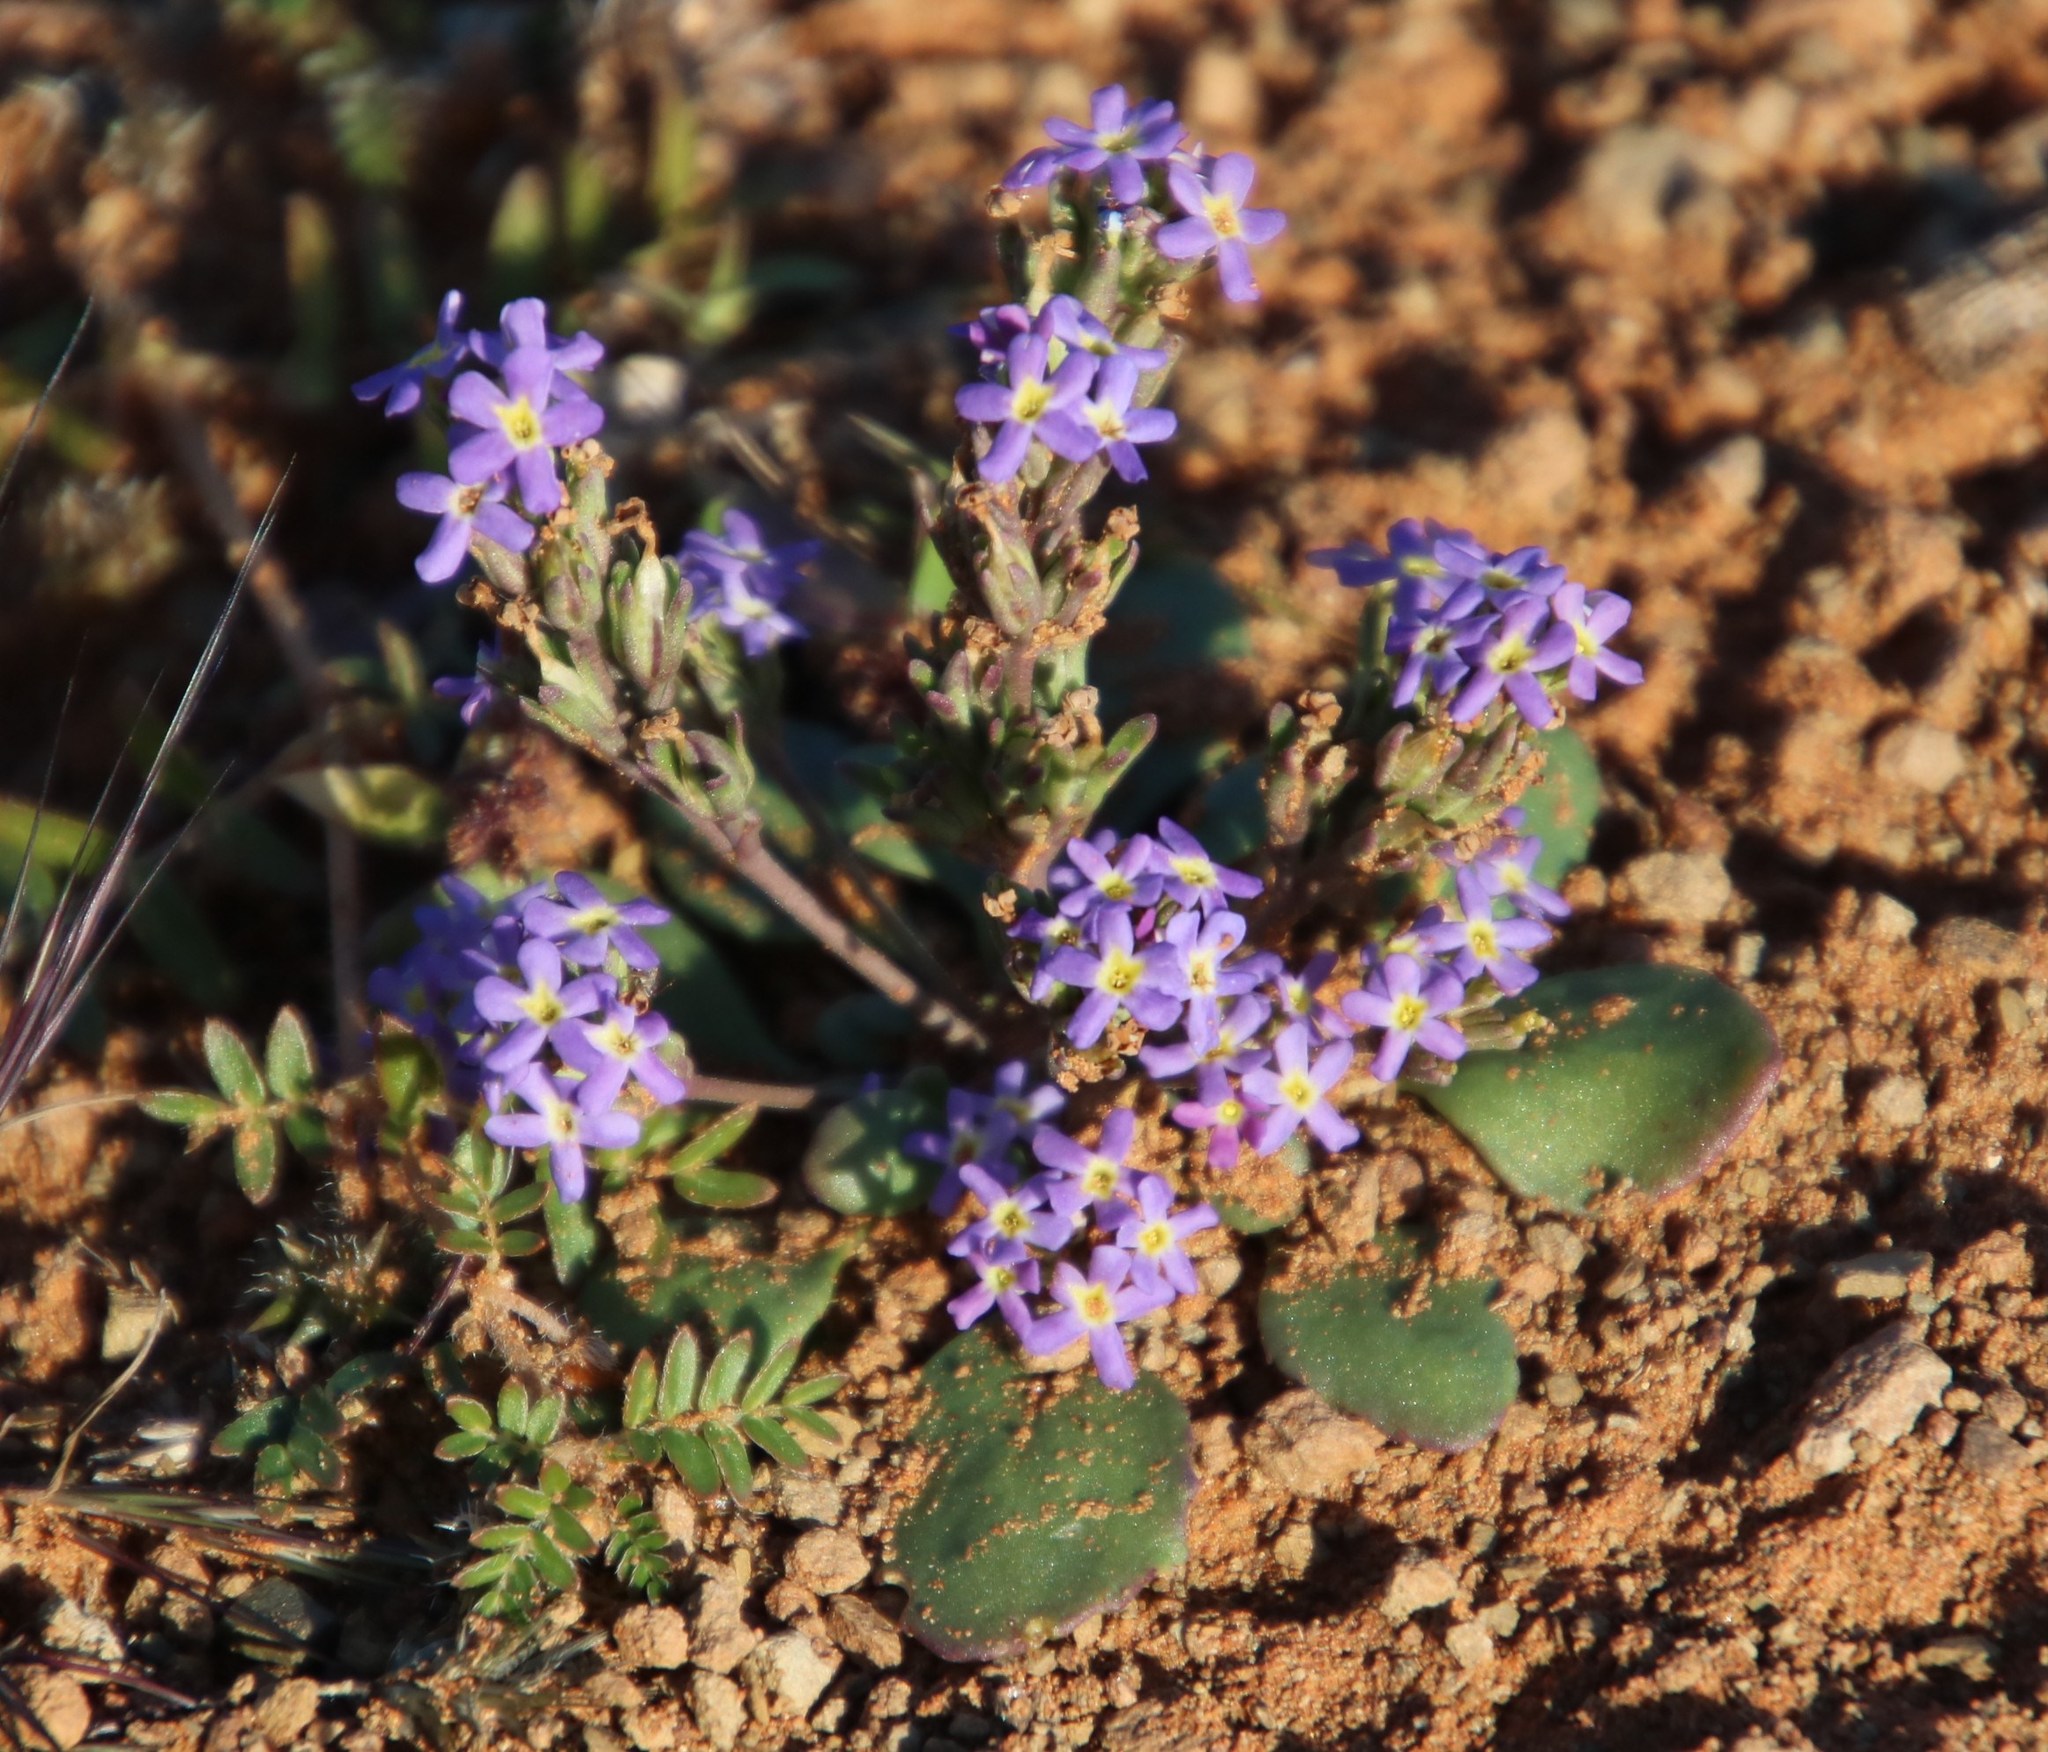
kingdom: Plantae
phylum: Tracheophyta
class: Magnoliopsida
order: Lamiales
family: Scrophulariaceae
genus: Manulea
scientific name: Manulea fragrans
